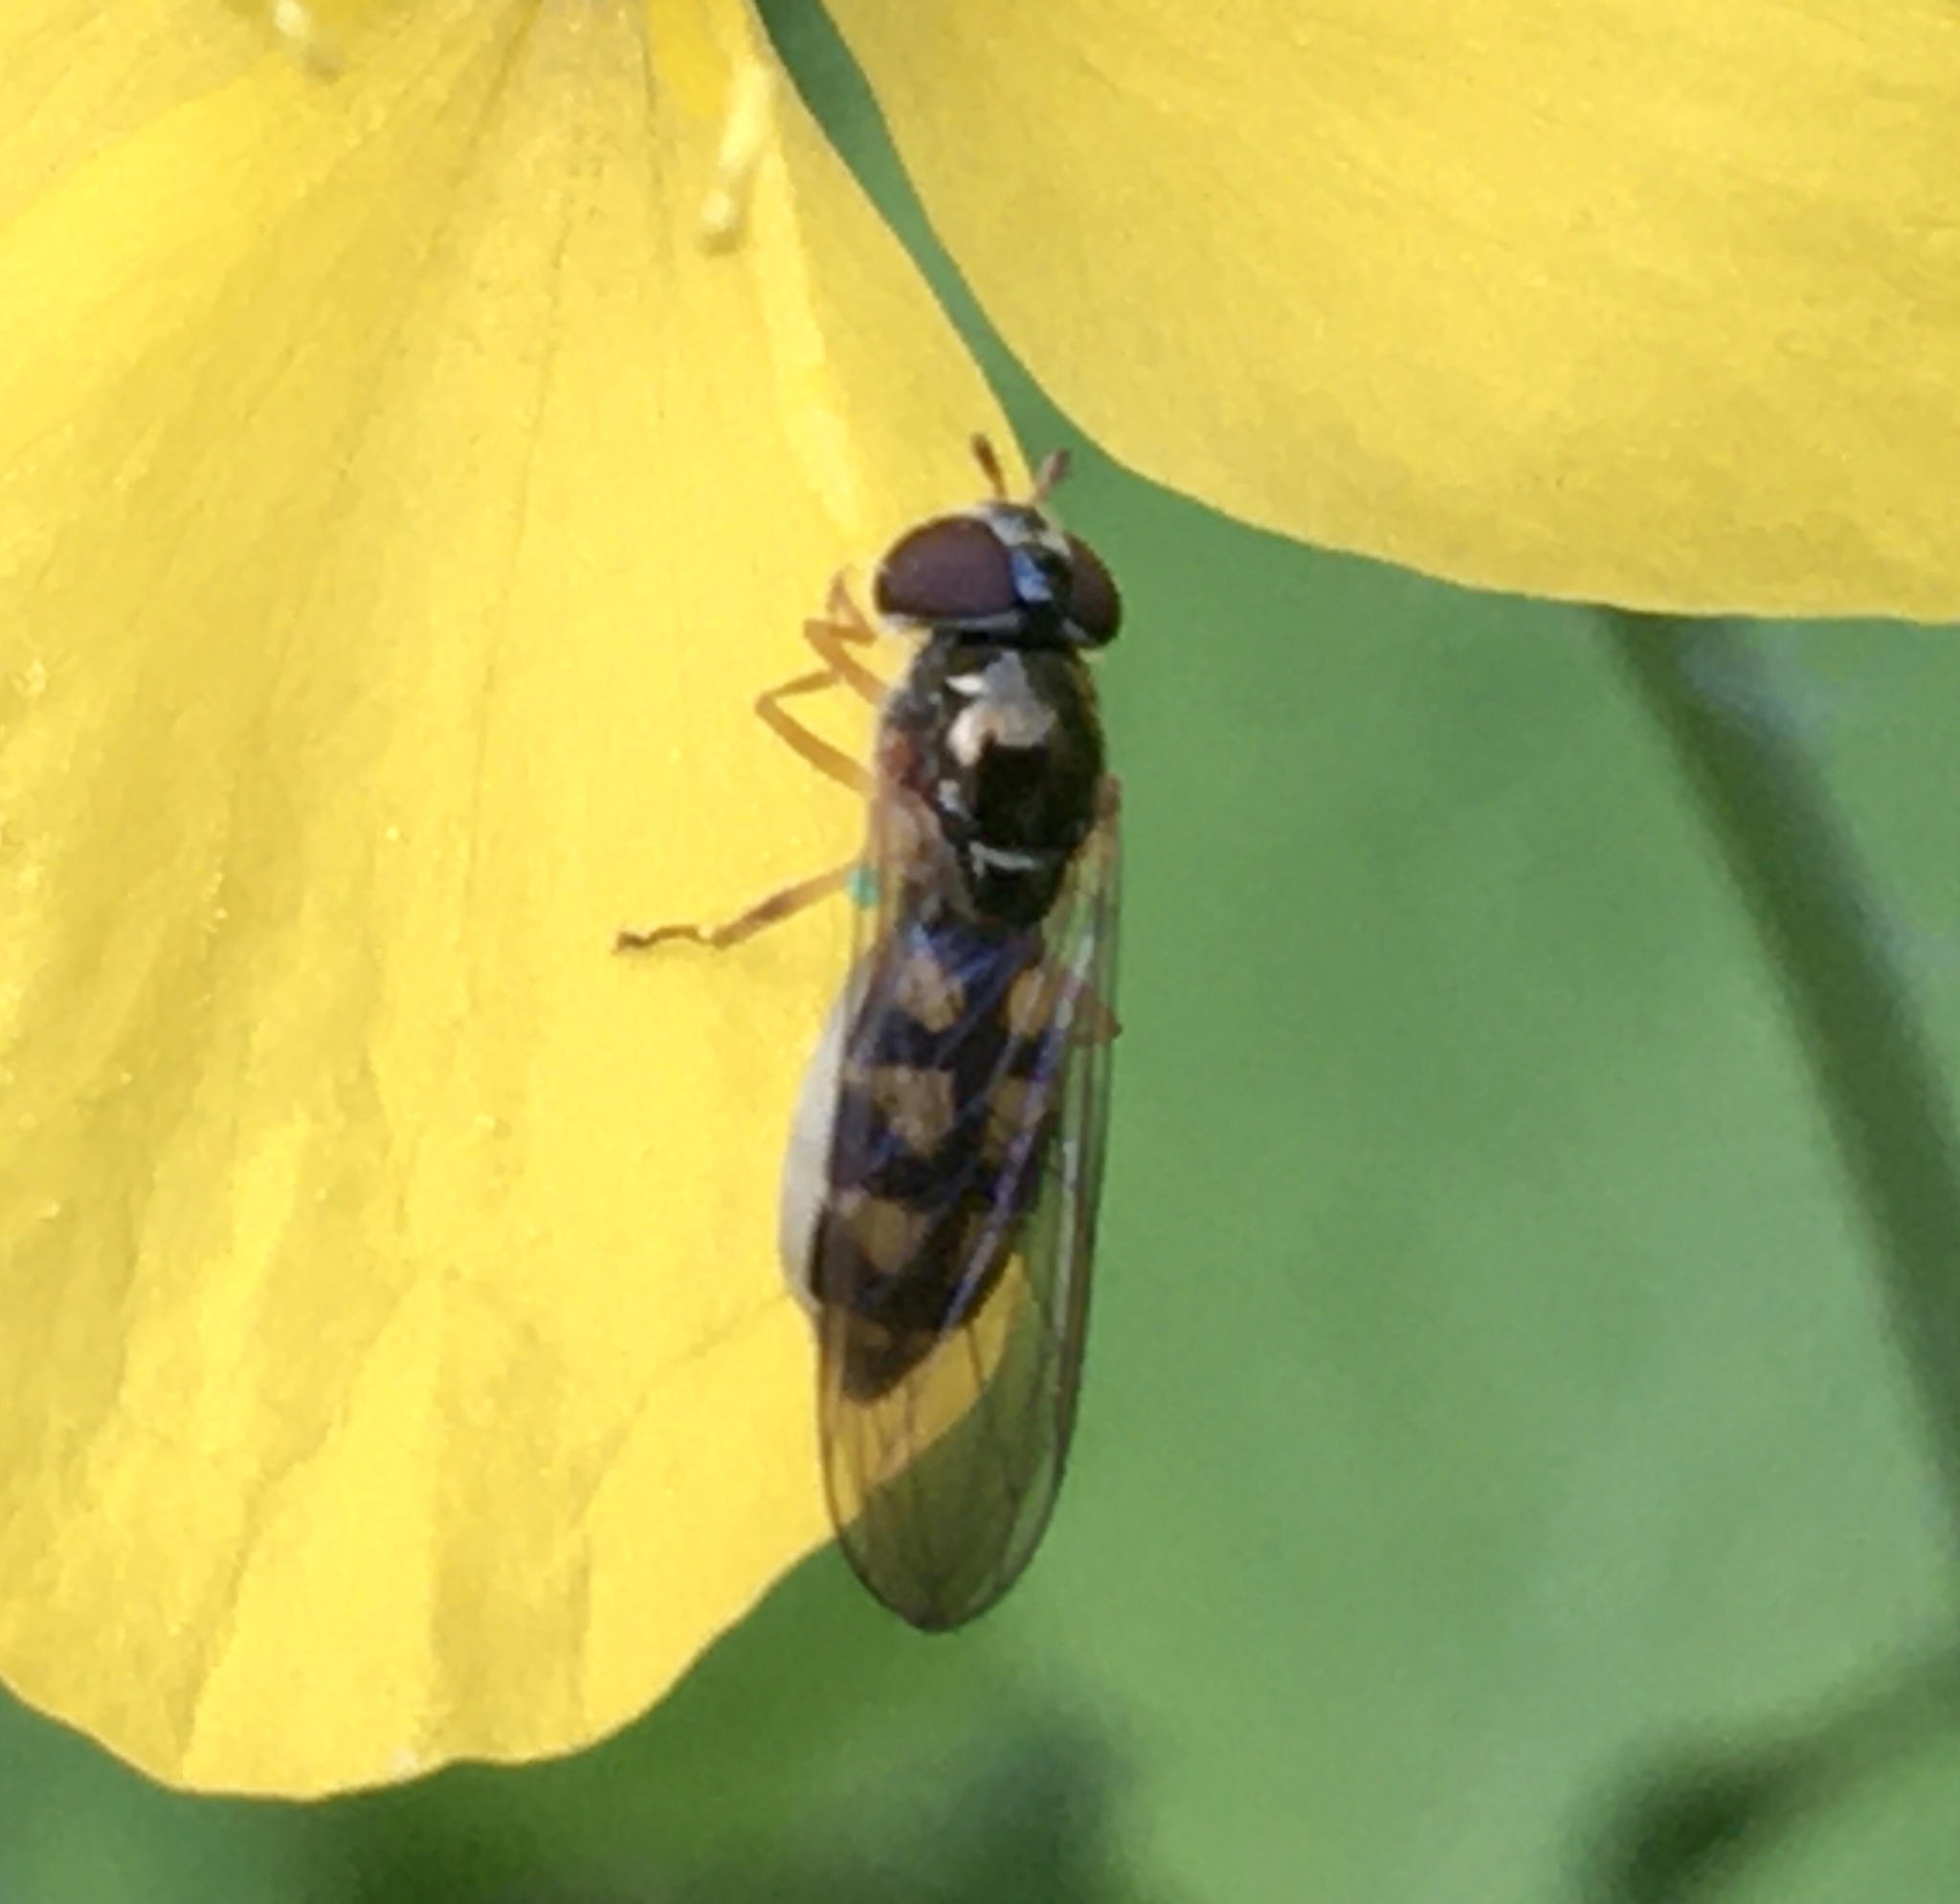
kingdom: Animalia
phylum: Arthropoda
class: Insecta
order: Diptera
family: Syrphidae
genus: Melanostoma
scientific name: Melanostoma mellina
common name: Hover fly
